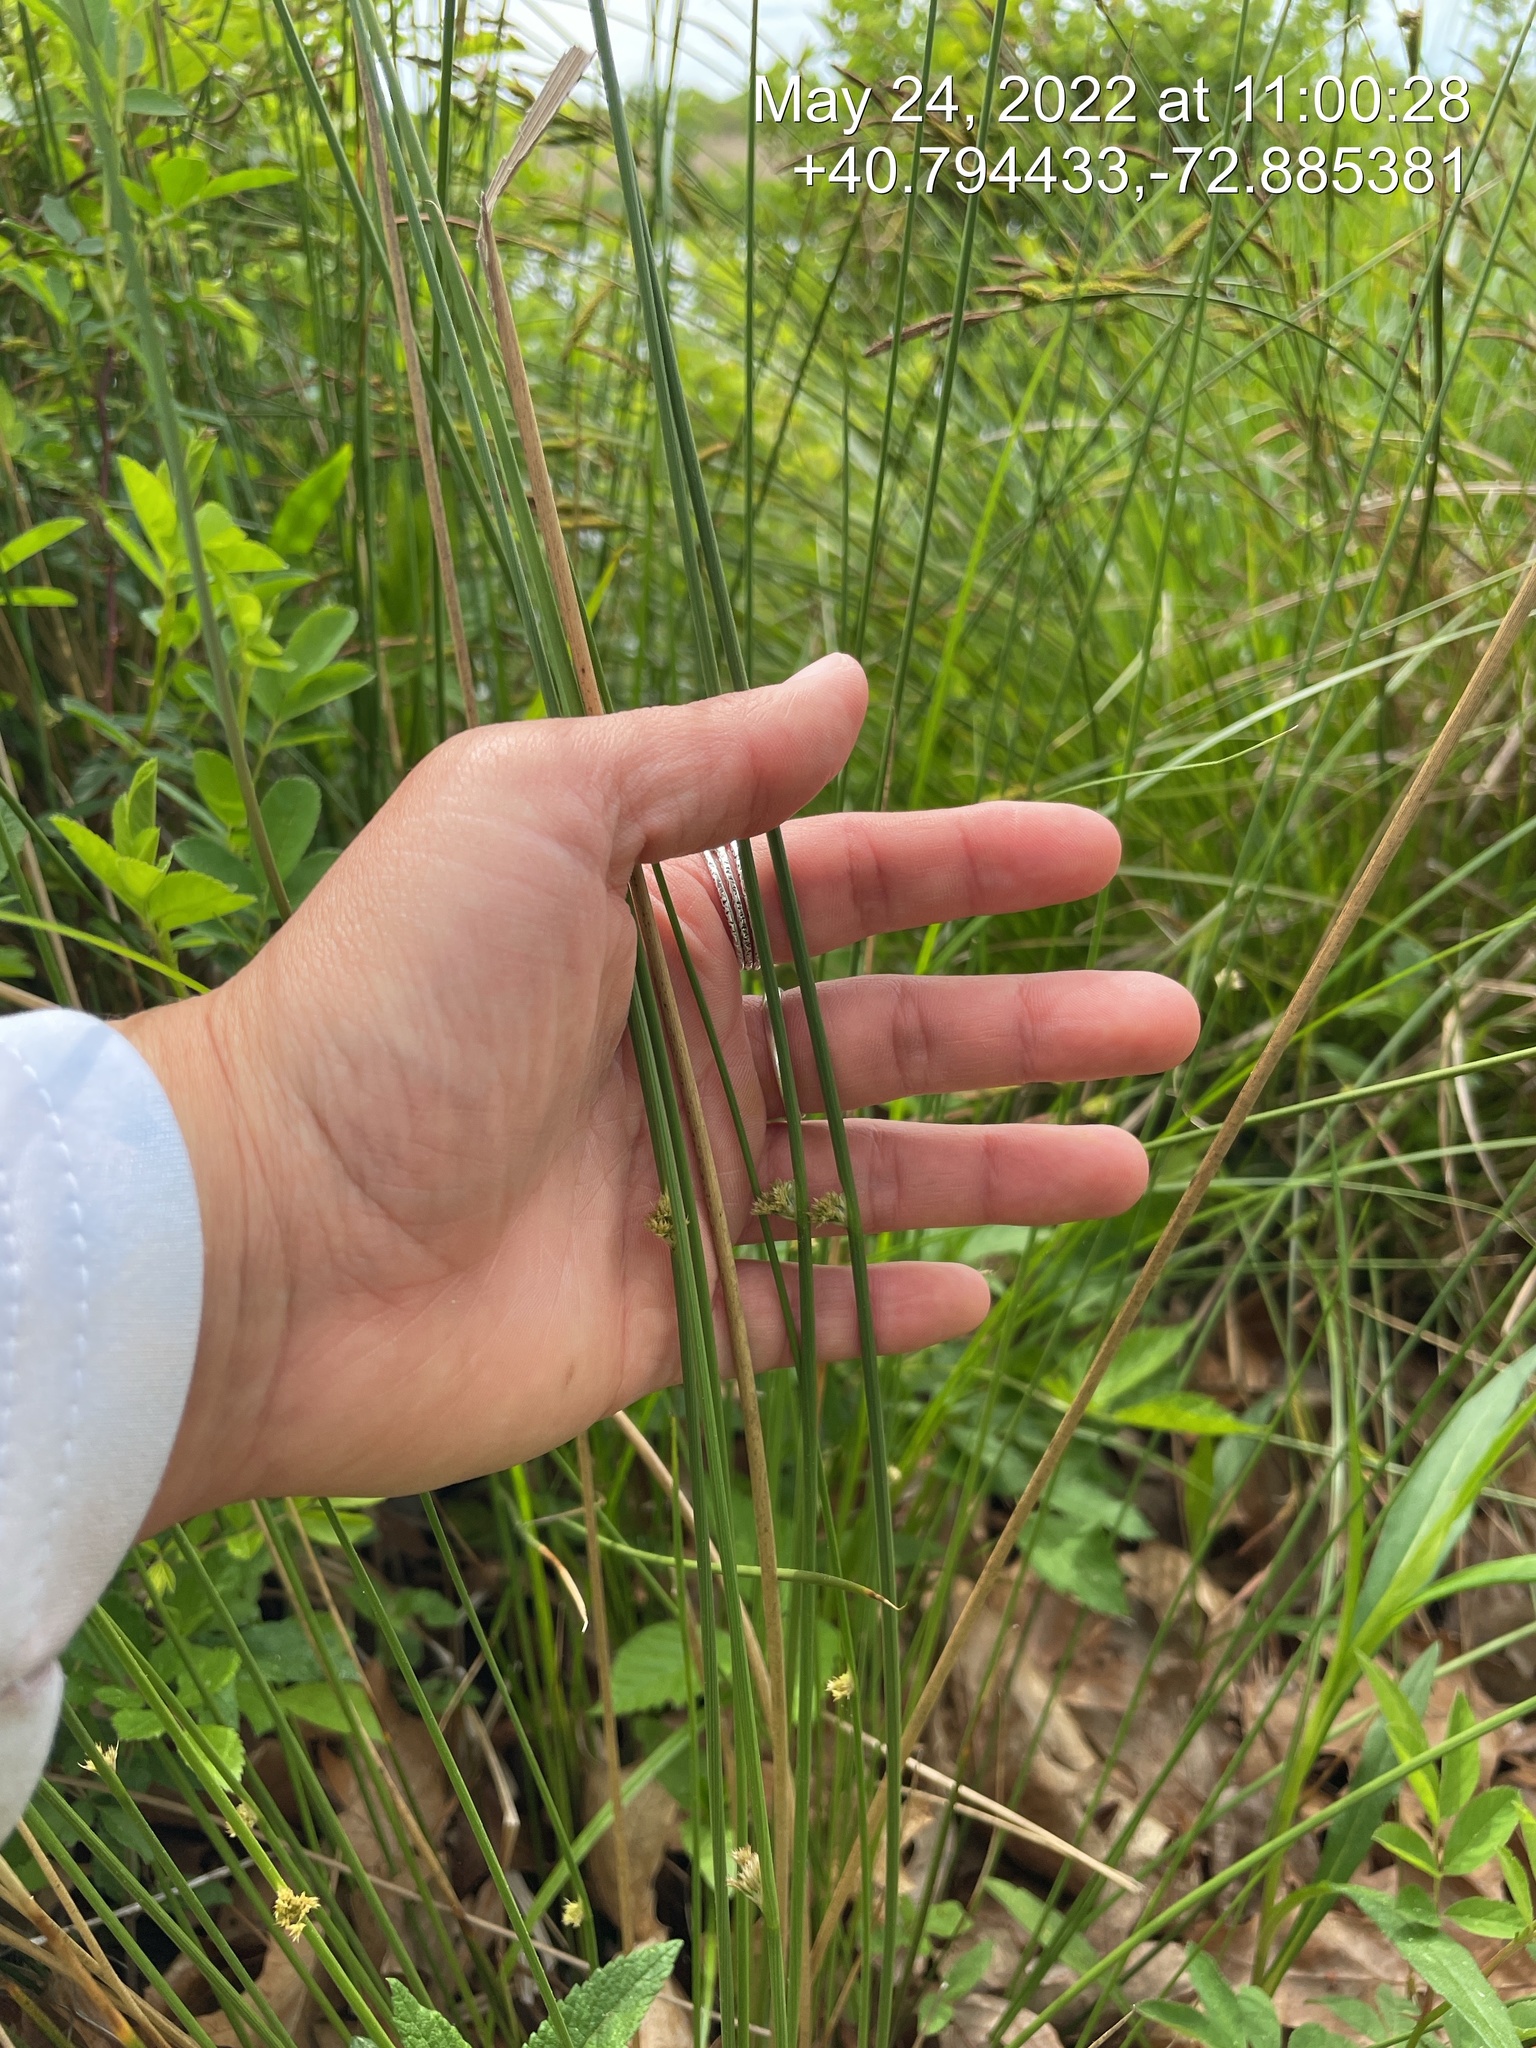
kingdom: Plantae
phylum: Tracheophyta
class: Liliopsida
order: Poales
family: Juncaceae
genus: Juncus
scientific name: Juncus effusus
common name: Soft rush
